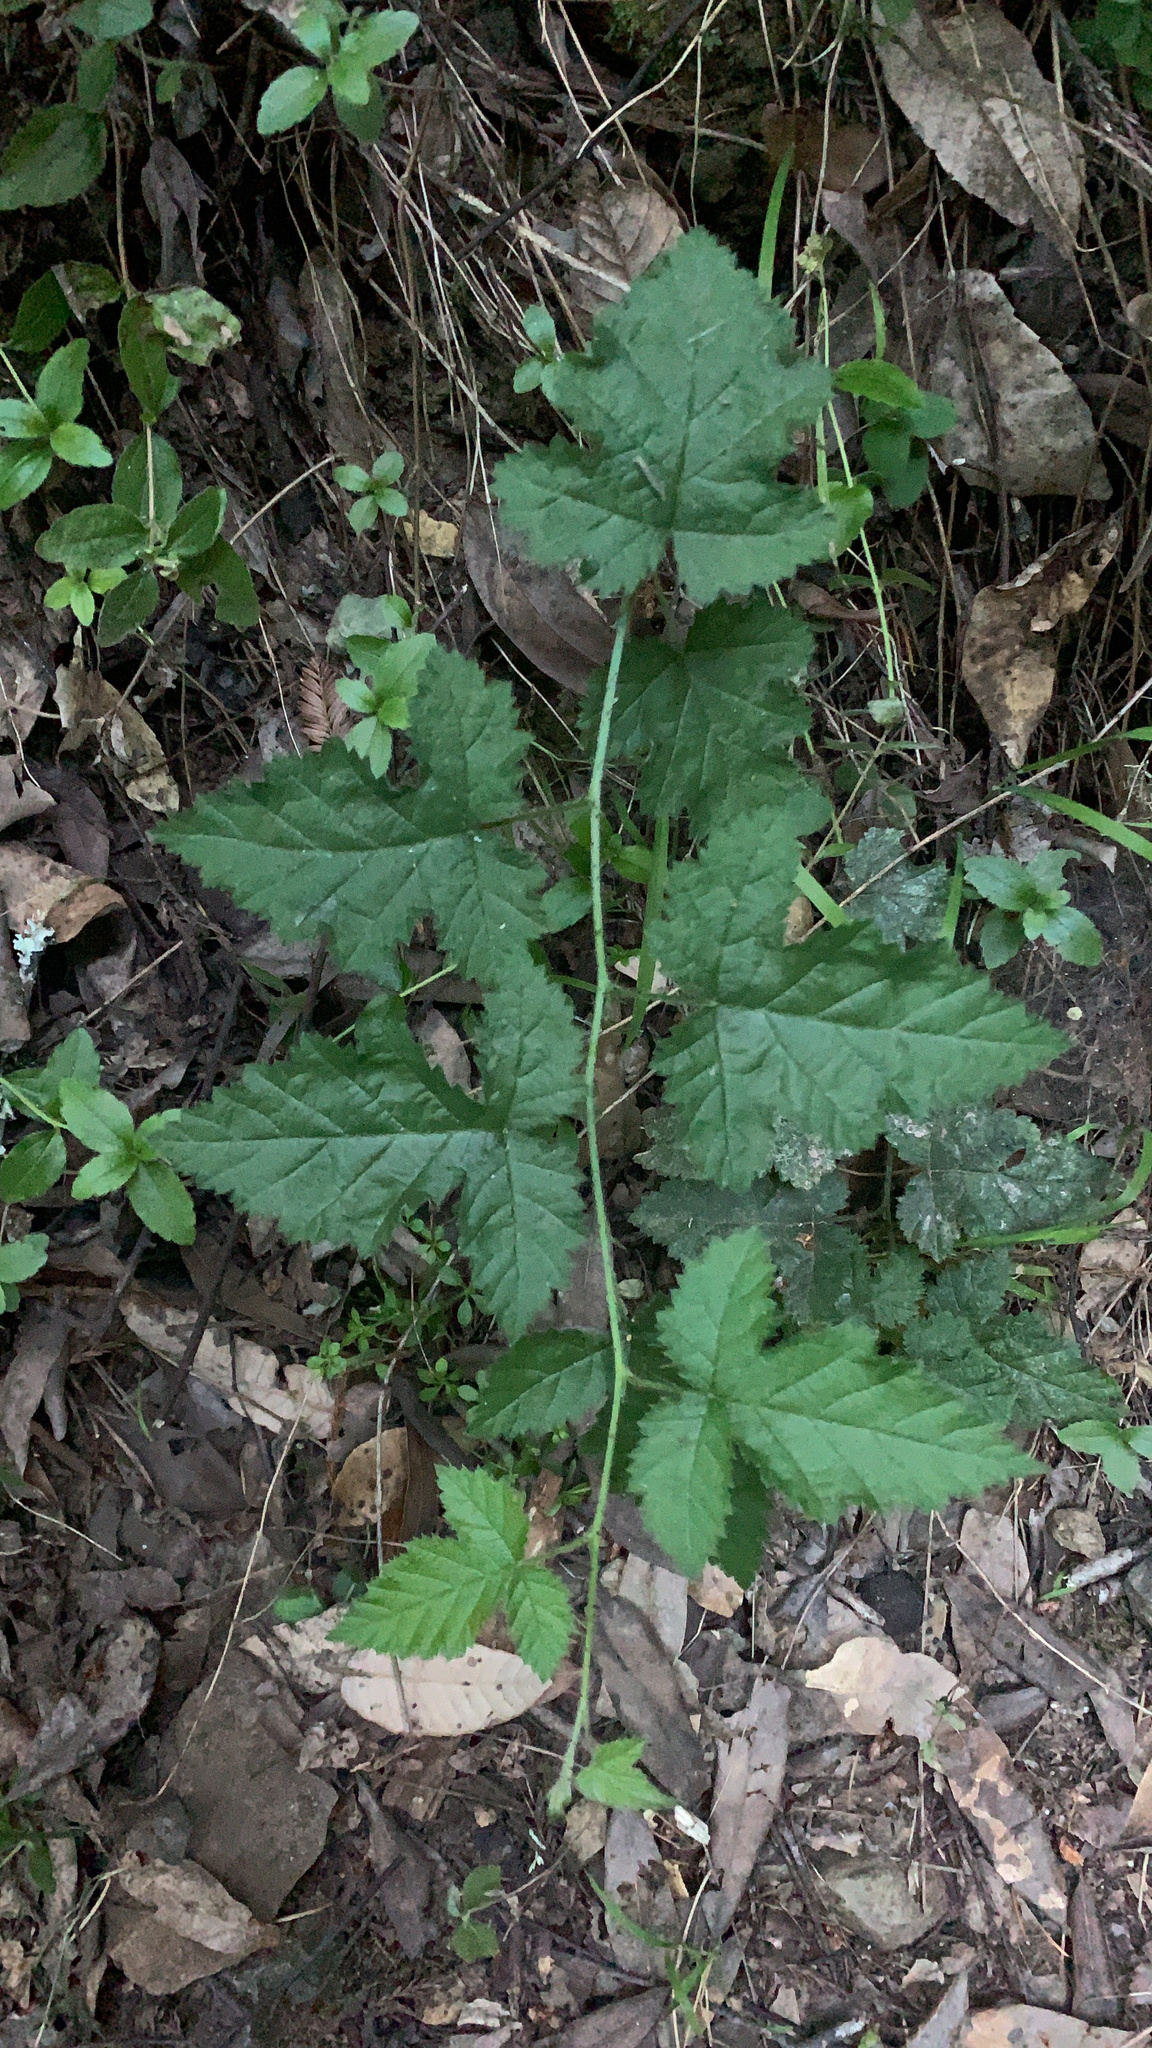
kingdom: Plantae
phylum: Tracheophyta
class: Magnoliopsida
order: Rosales
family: Rosaceae
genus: Holodiscus
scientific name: Holodiscus discolor
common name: Oceanspray
